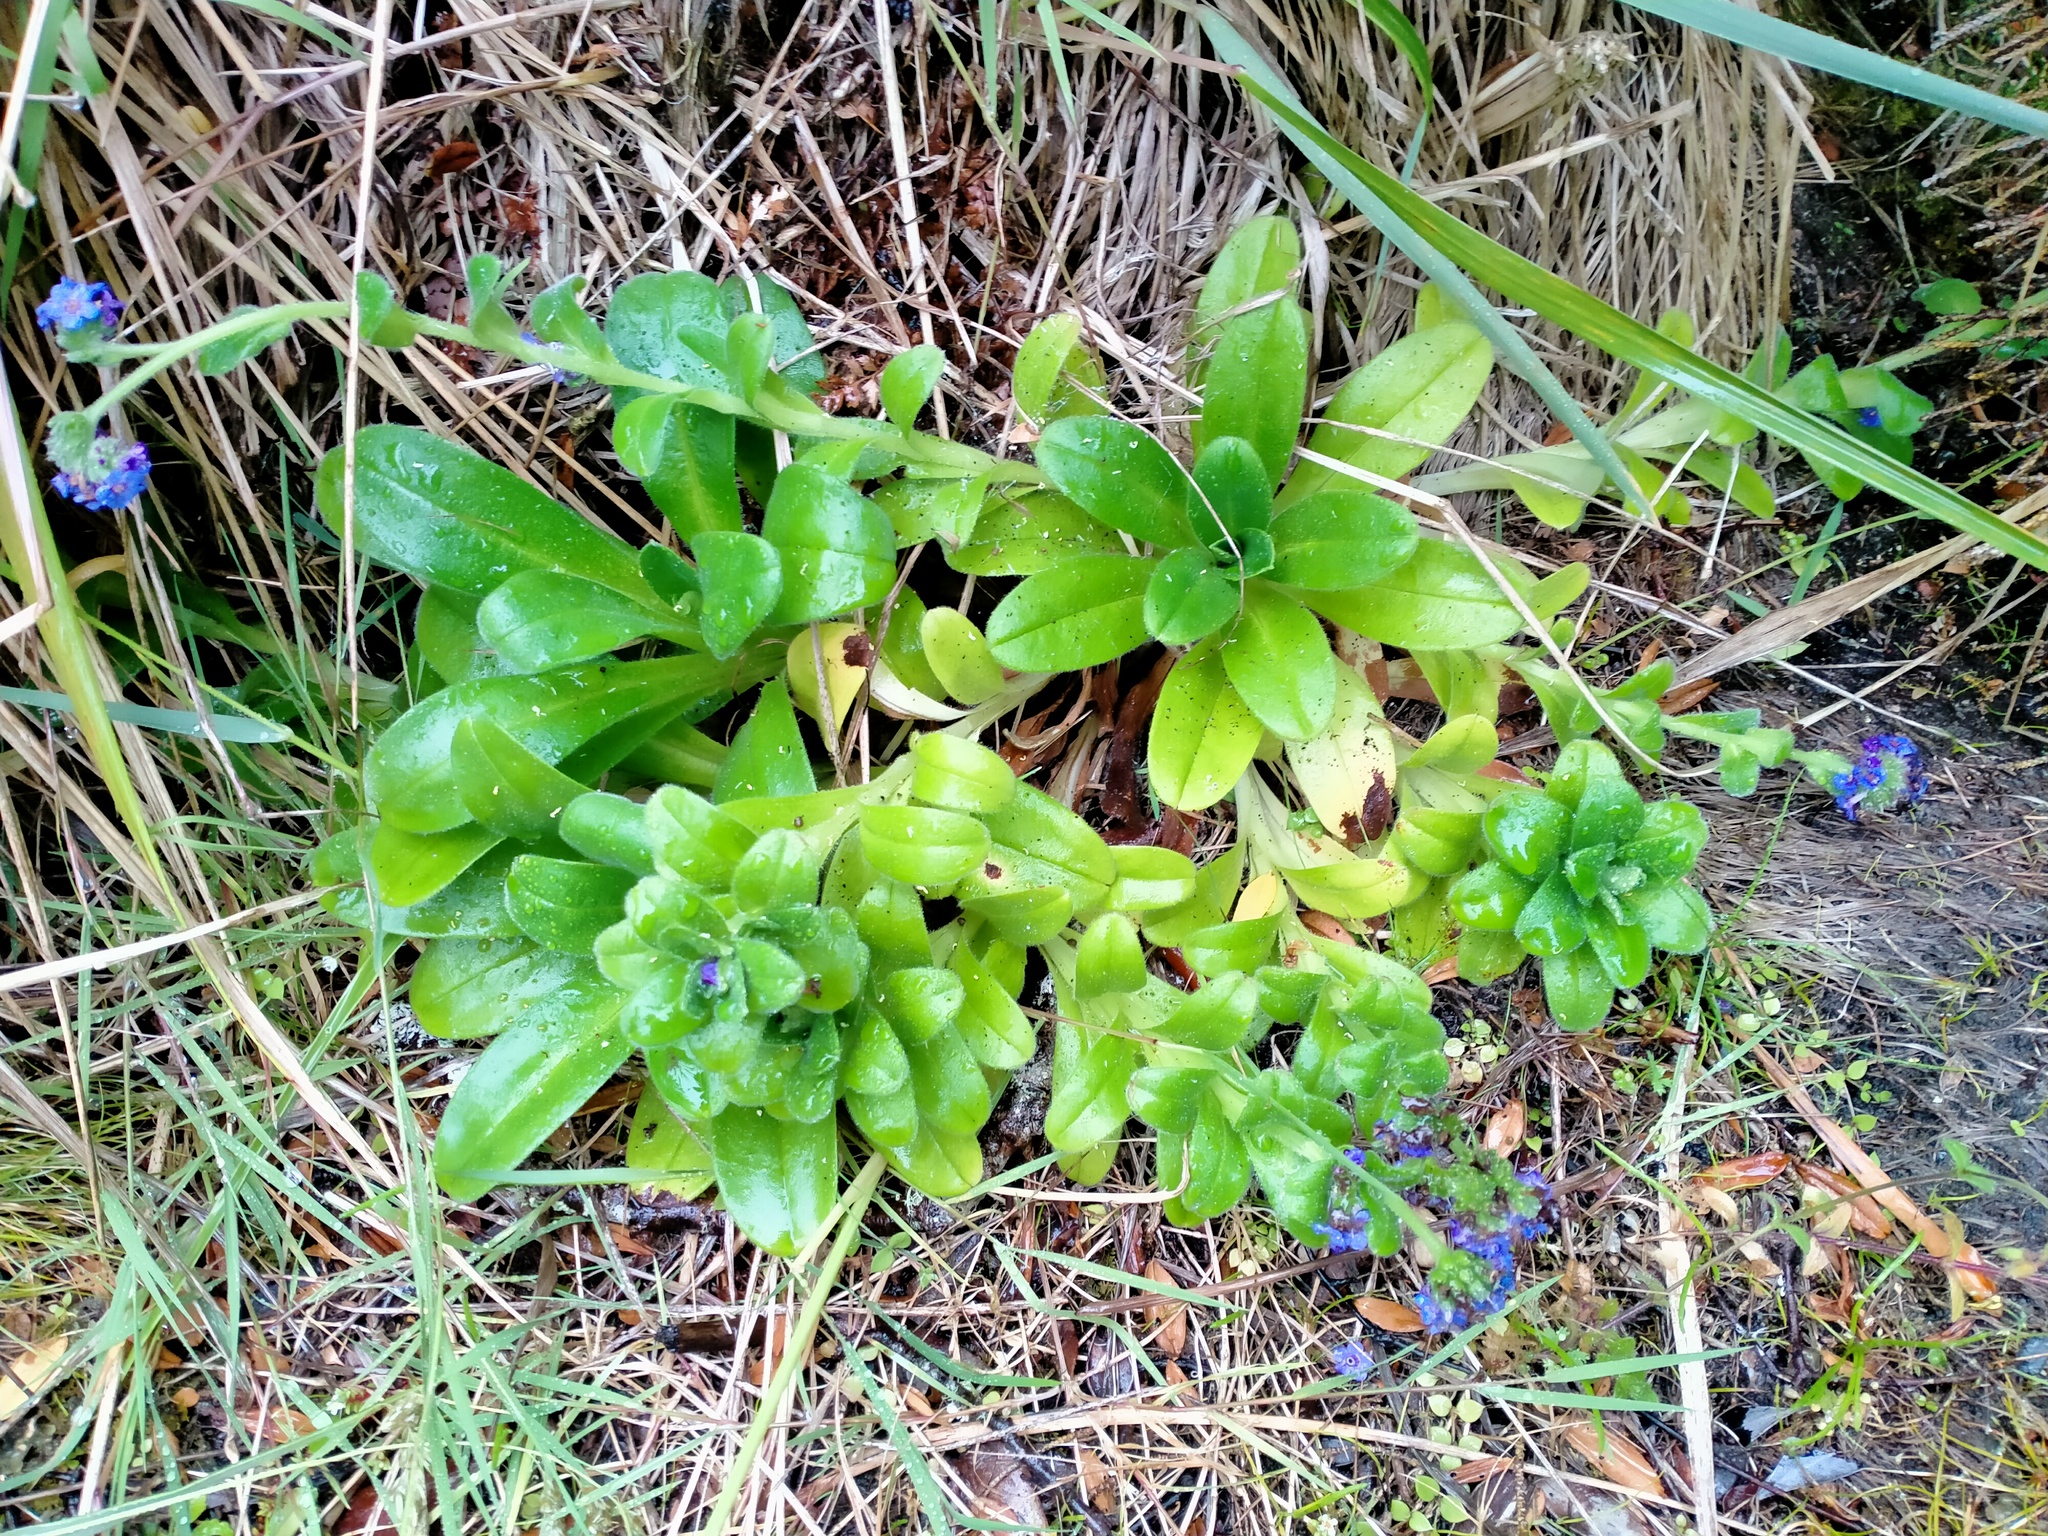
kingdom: Plantae
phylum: Tracheophyta
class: Magnoliopsida
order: Boraginales
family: Boraginaceae
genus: Myosotis
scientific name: Myosotis capitata
